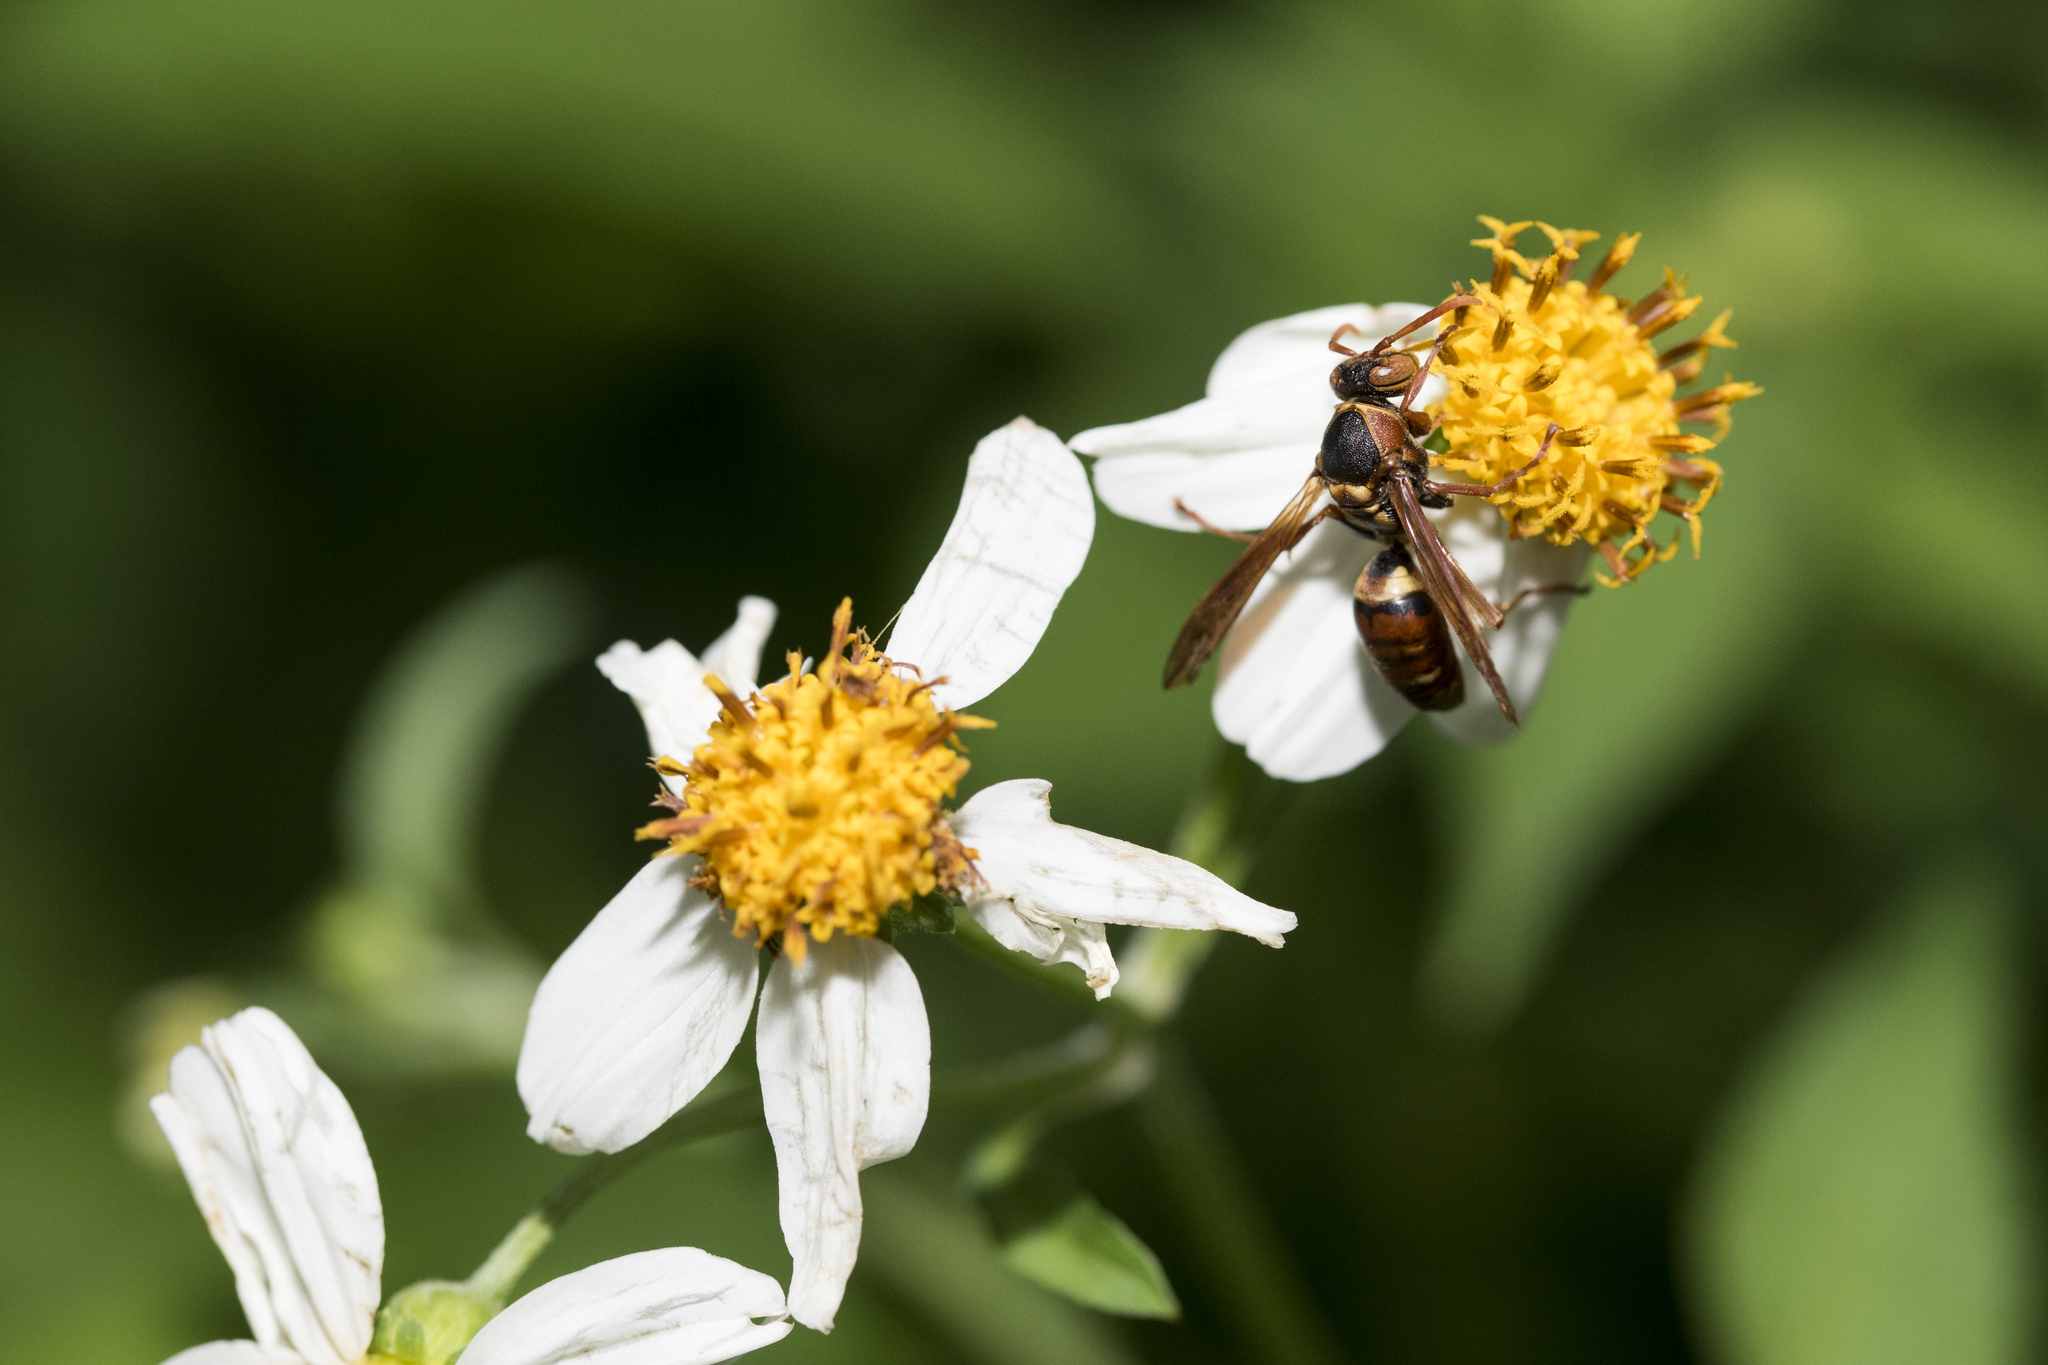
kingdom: Animalia
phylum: Arthropoda
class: Insecta
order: Hymenoptera
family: Eumenidae
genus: Polistes
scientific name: Polistes takasagonus
